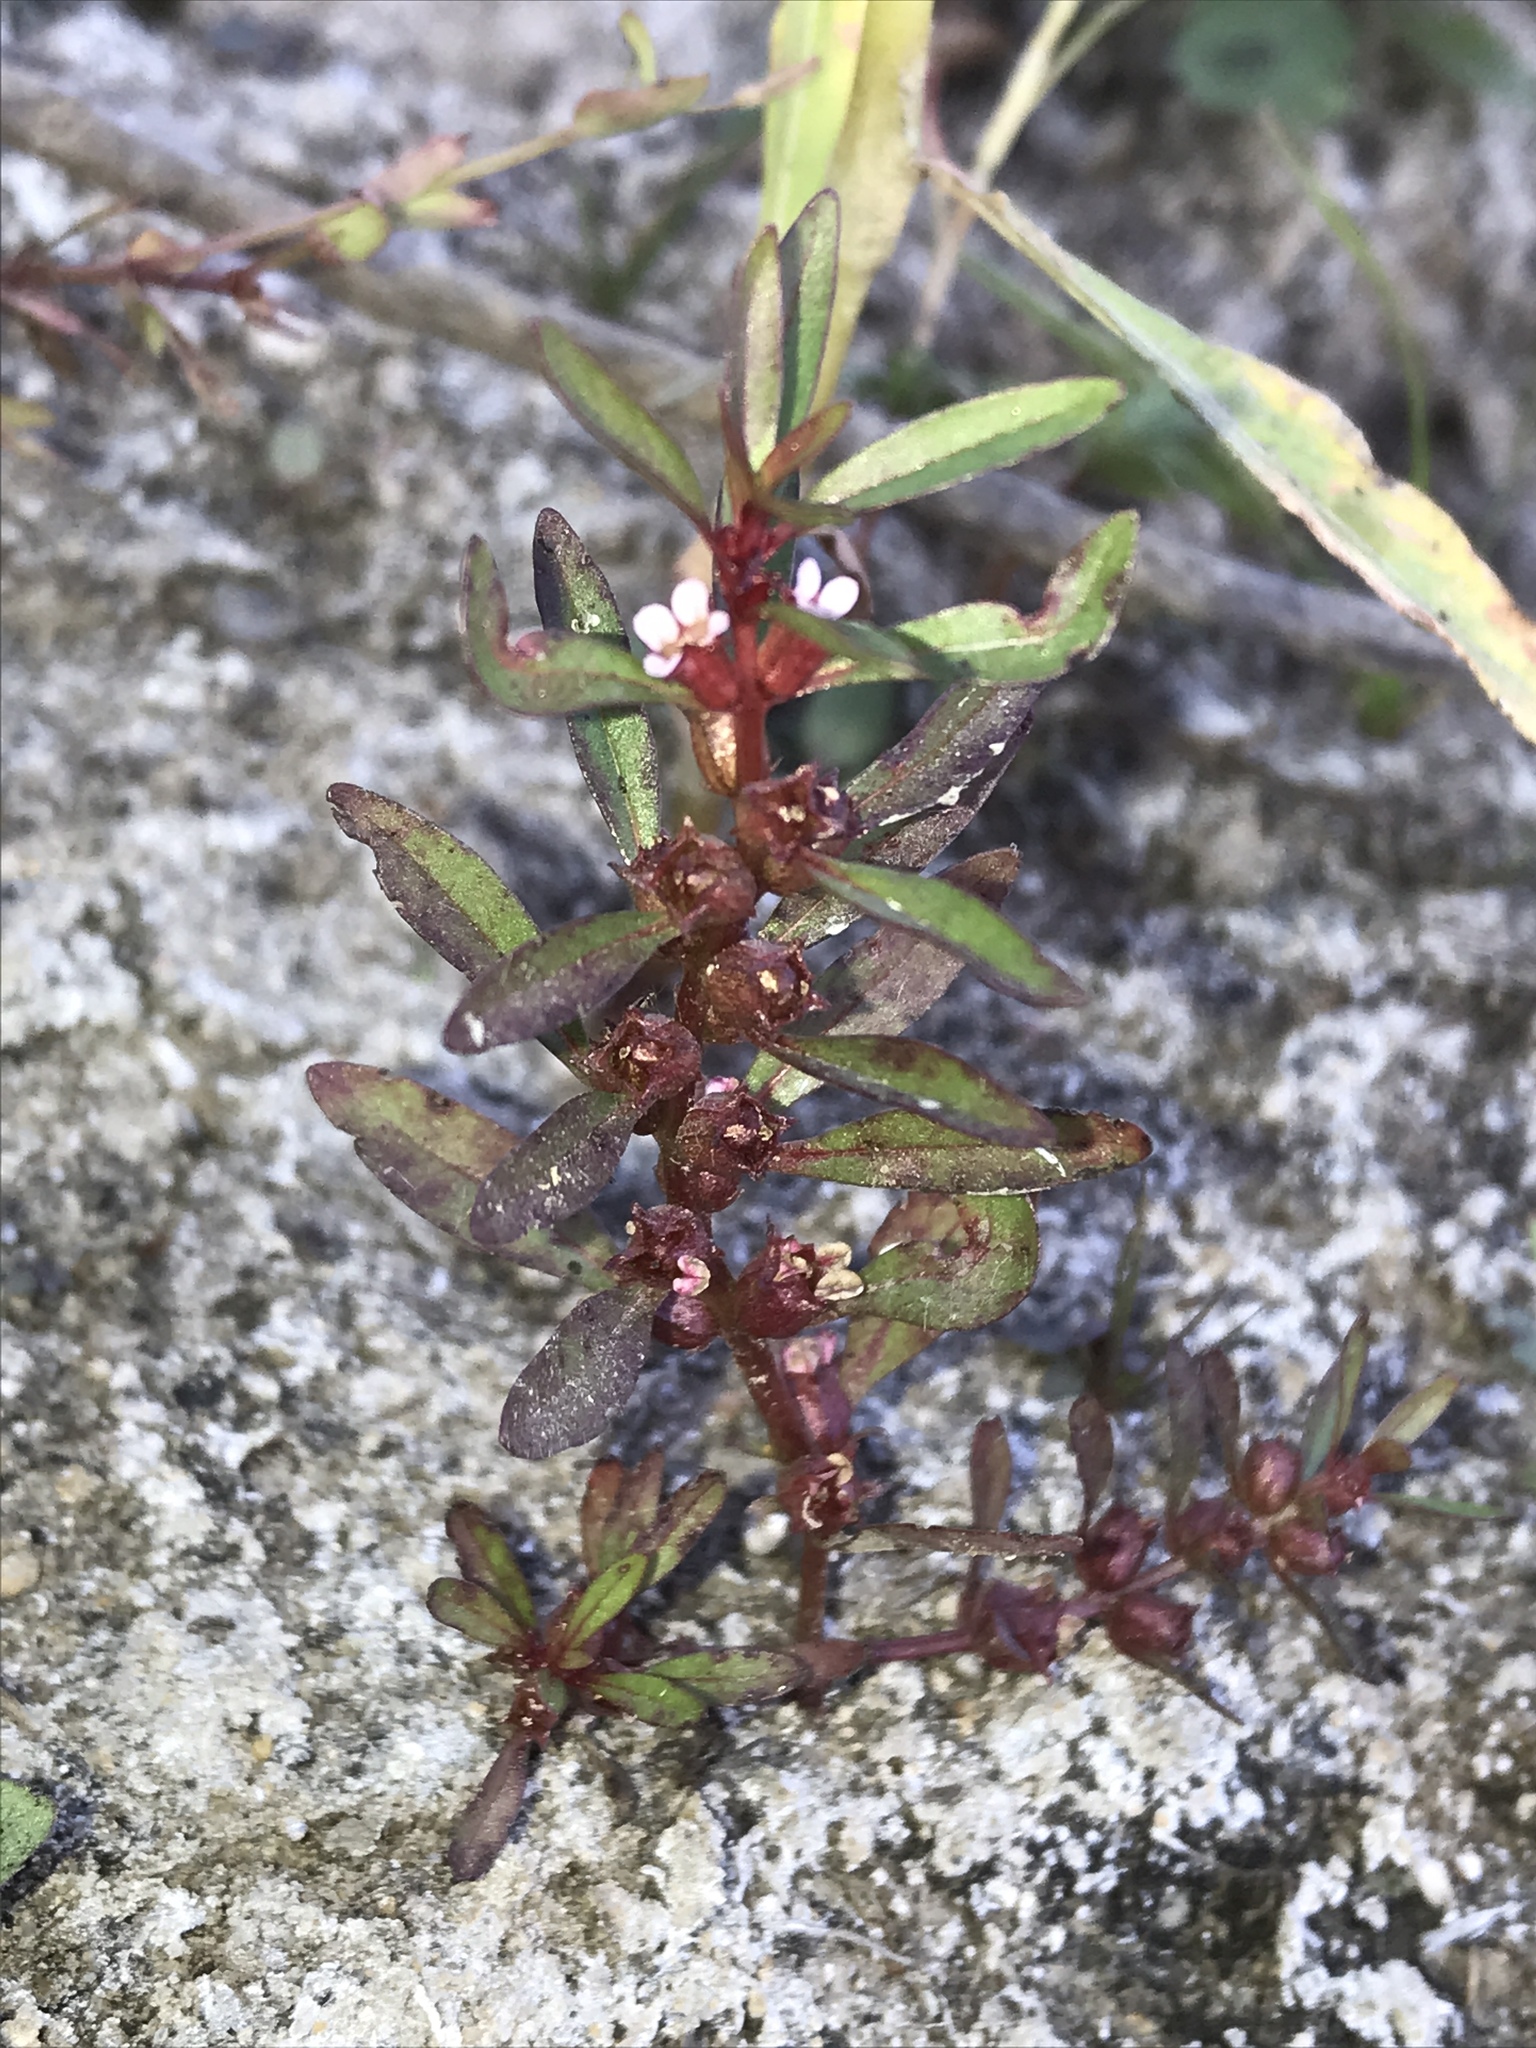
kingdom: Plantae
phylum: Tracheophyta
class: Magnoliopsida
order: Myrtales
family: Lythraceae
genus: Rotala
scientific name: Rotala ramosior
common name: Lowland rotala
